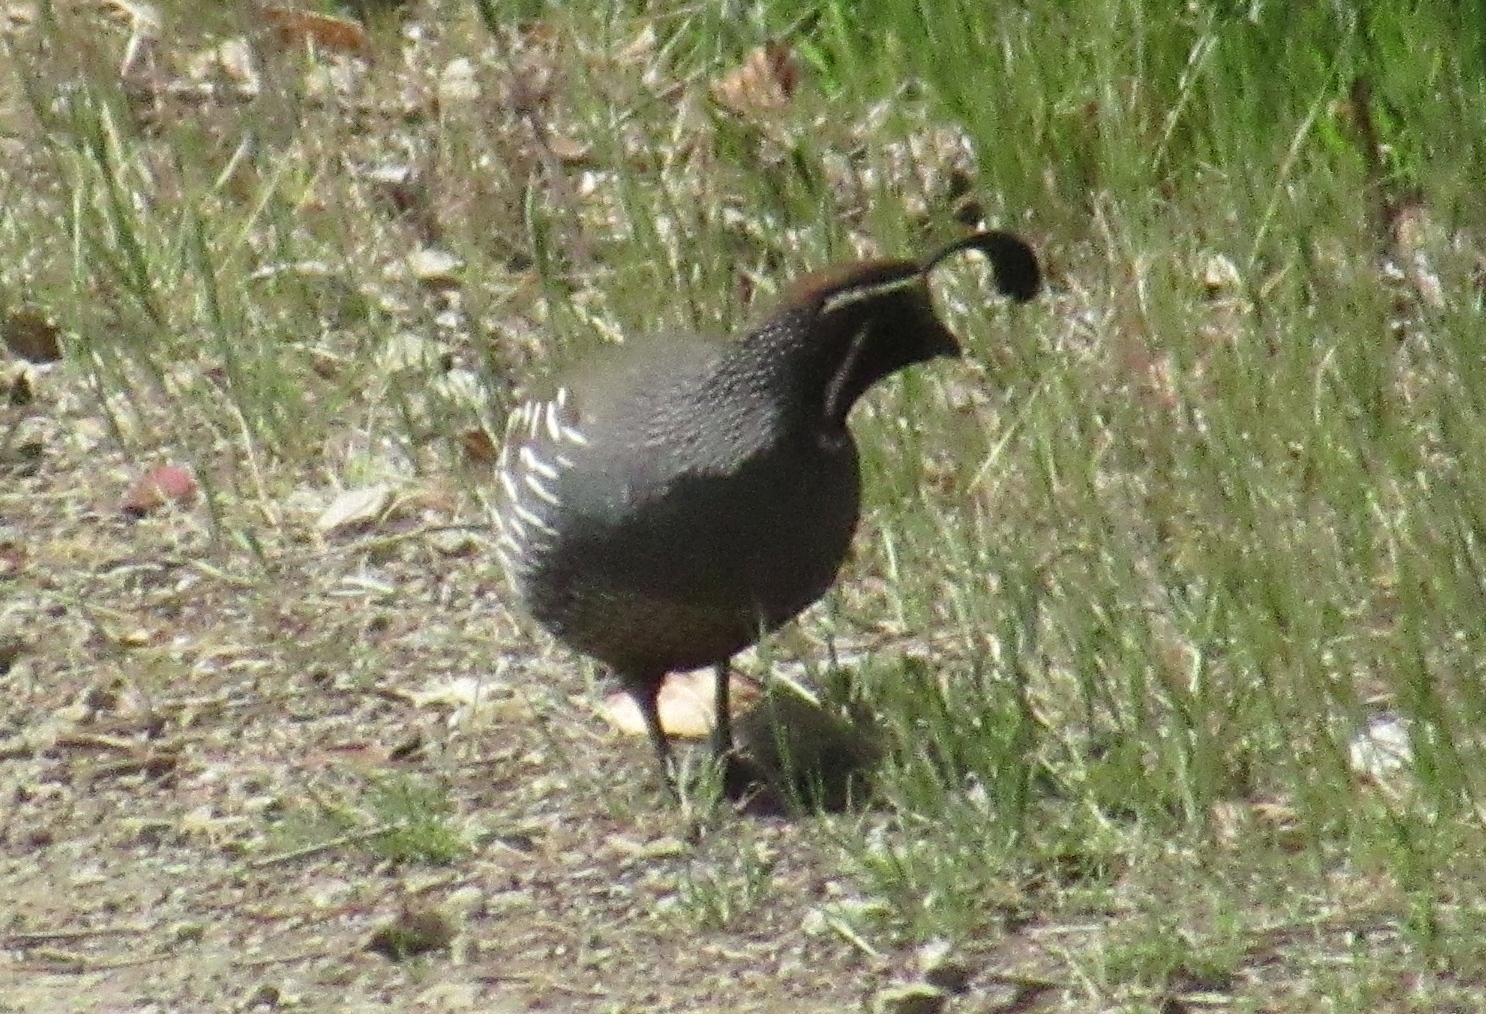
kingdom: Animalia
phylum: Chordata
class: Aves
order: Galliformes
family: Odontophoridae
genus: Callipepla
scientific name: Callipepla californica
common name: California quail
